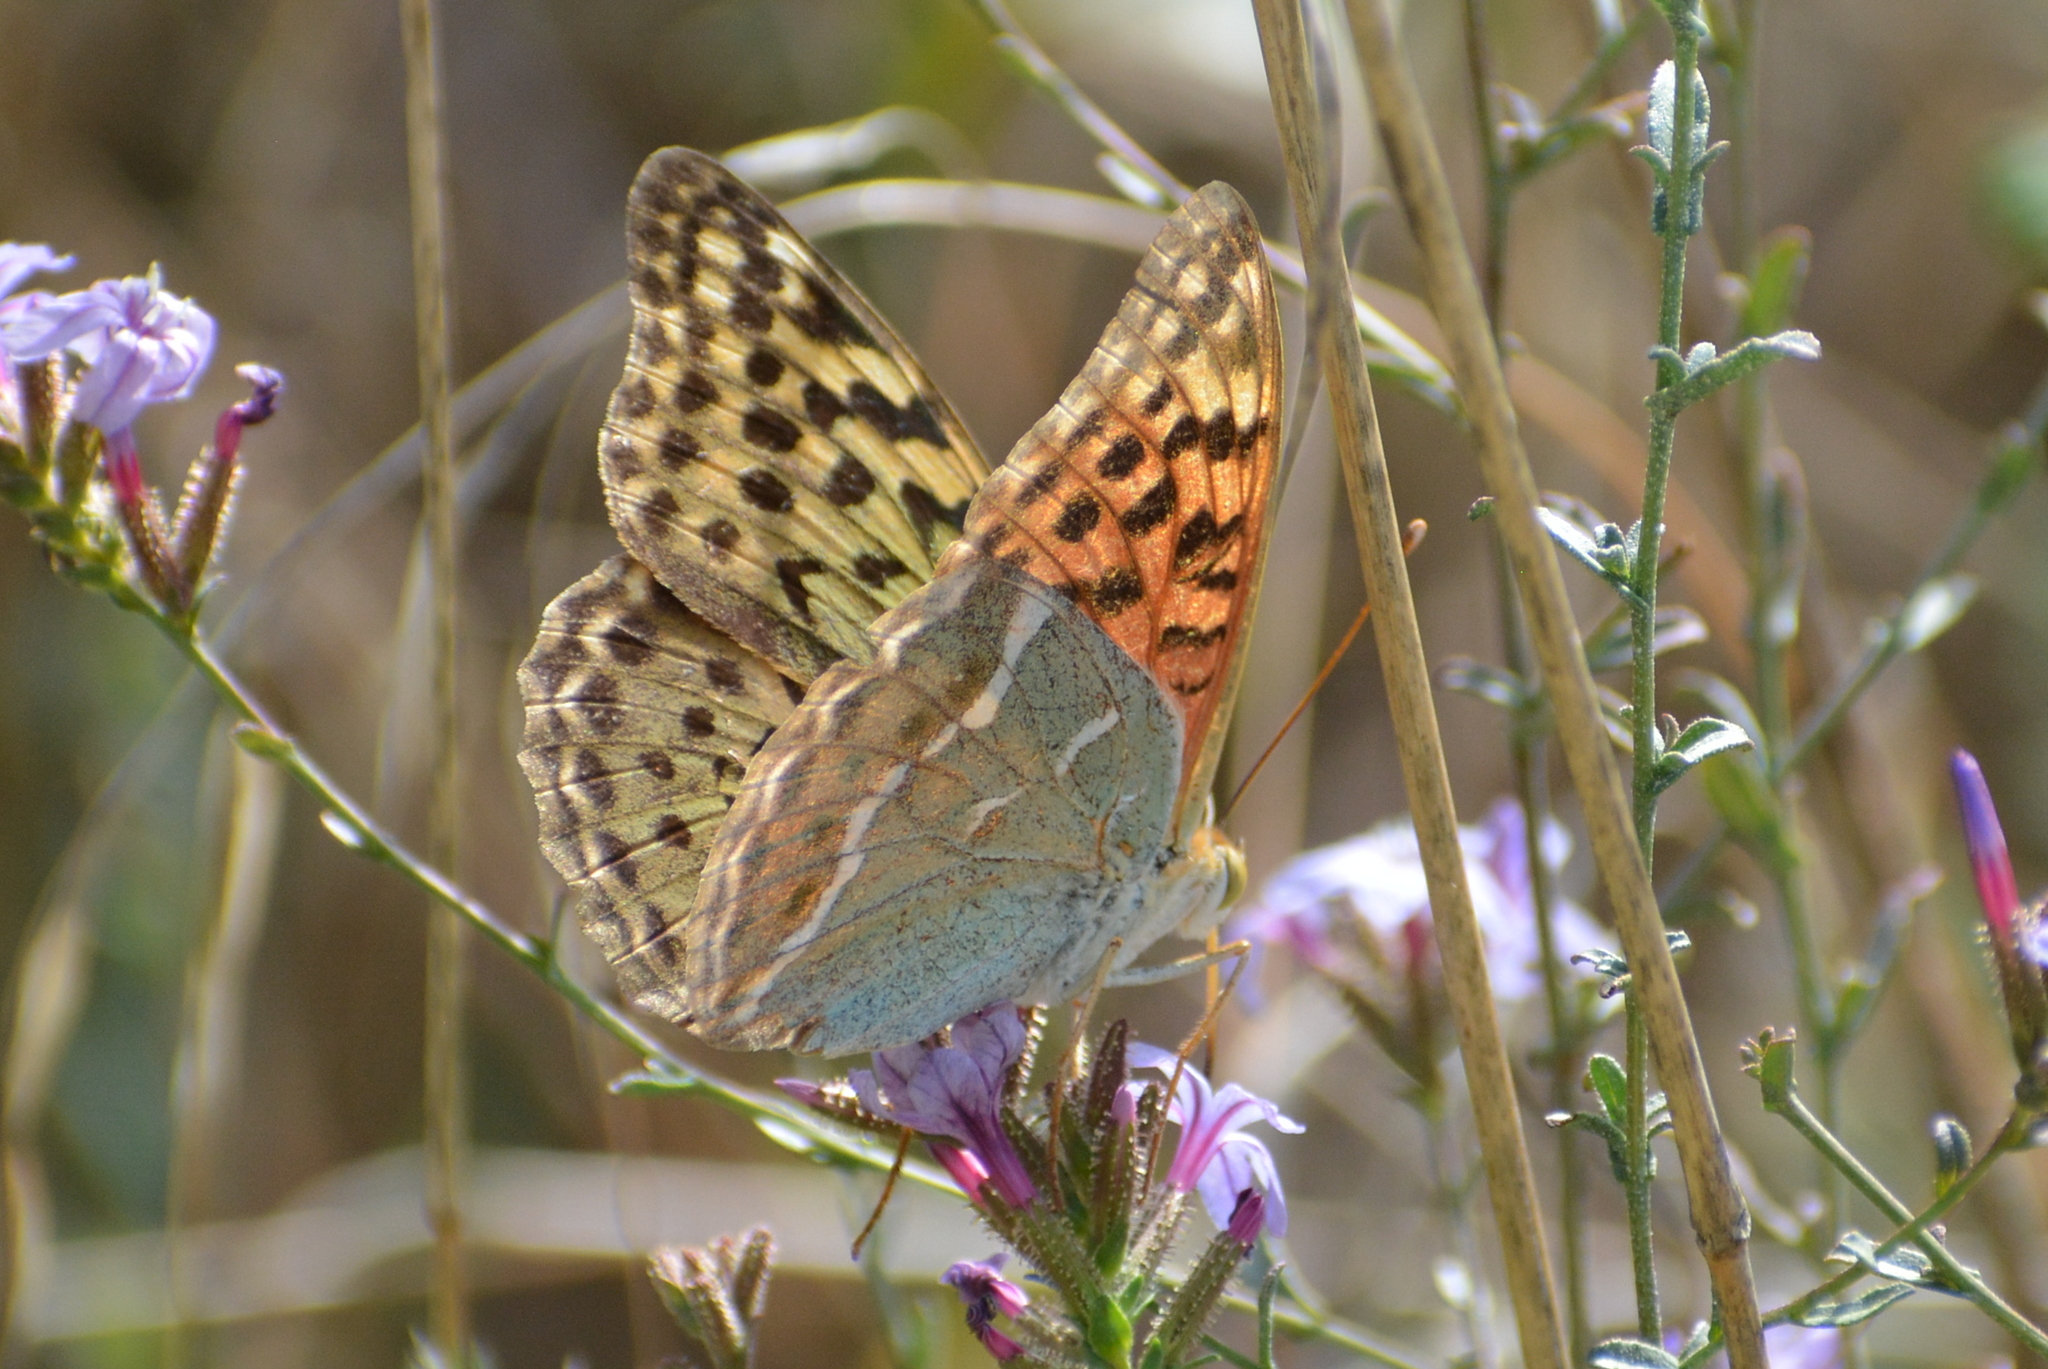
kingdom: Animalia
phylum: Arthropoda
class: Insecta
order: Lepidoptera
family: Nymphalidae
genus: Damora
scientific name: Damora pandora
